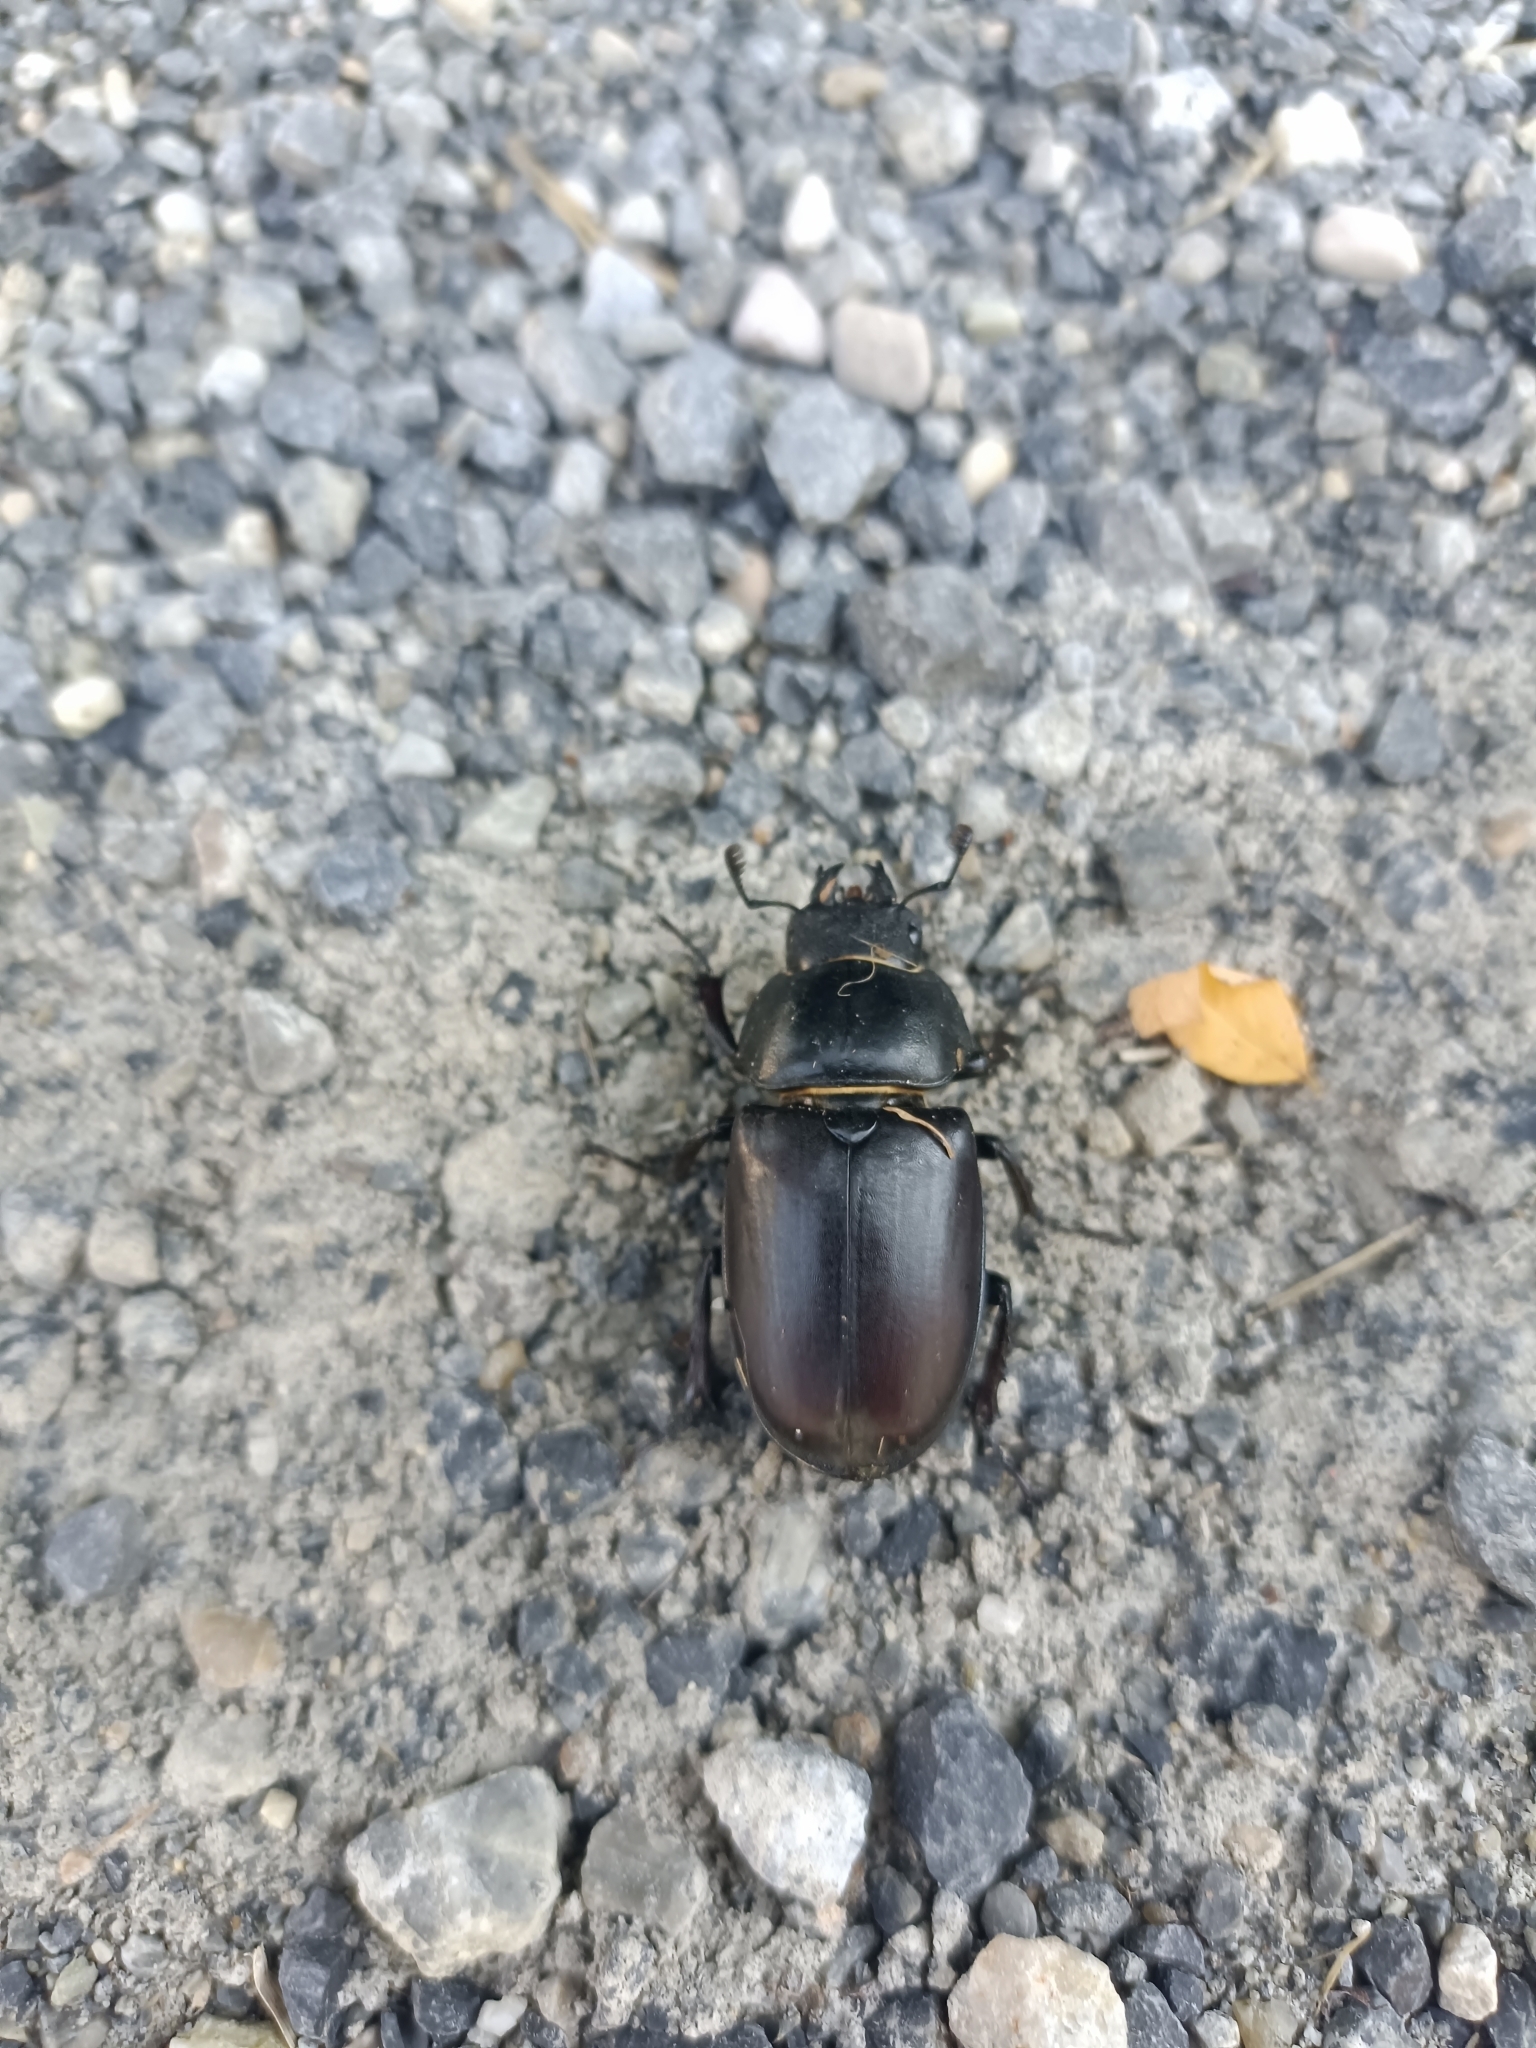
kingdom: Animalia
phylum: Arthropoda
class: Insecta
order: Coleoptera
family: Lucanidae
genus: Lucanus
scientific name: Lucanus cervus
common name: Stag beetle
